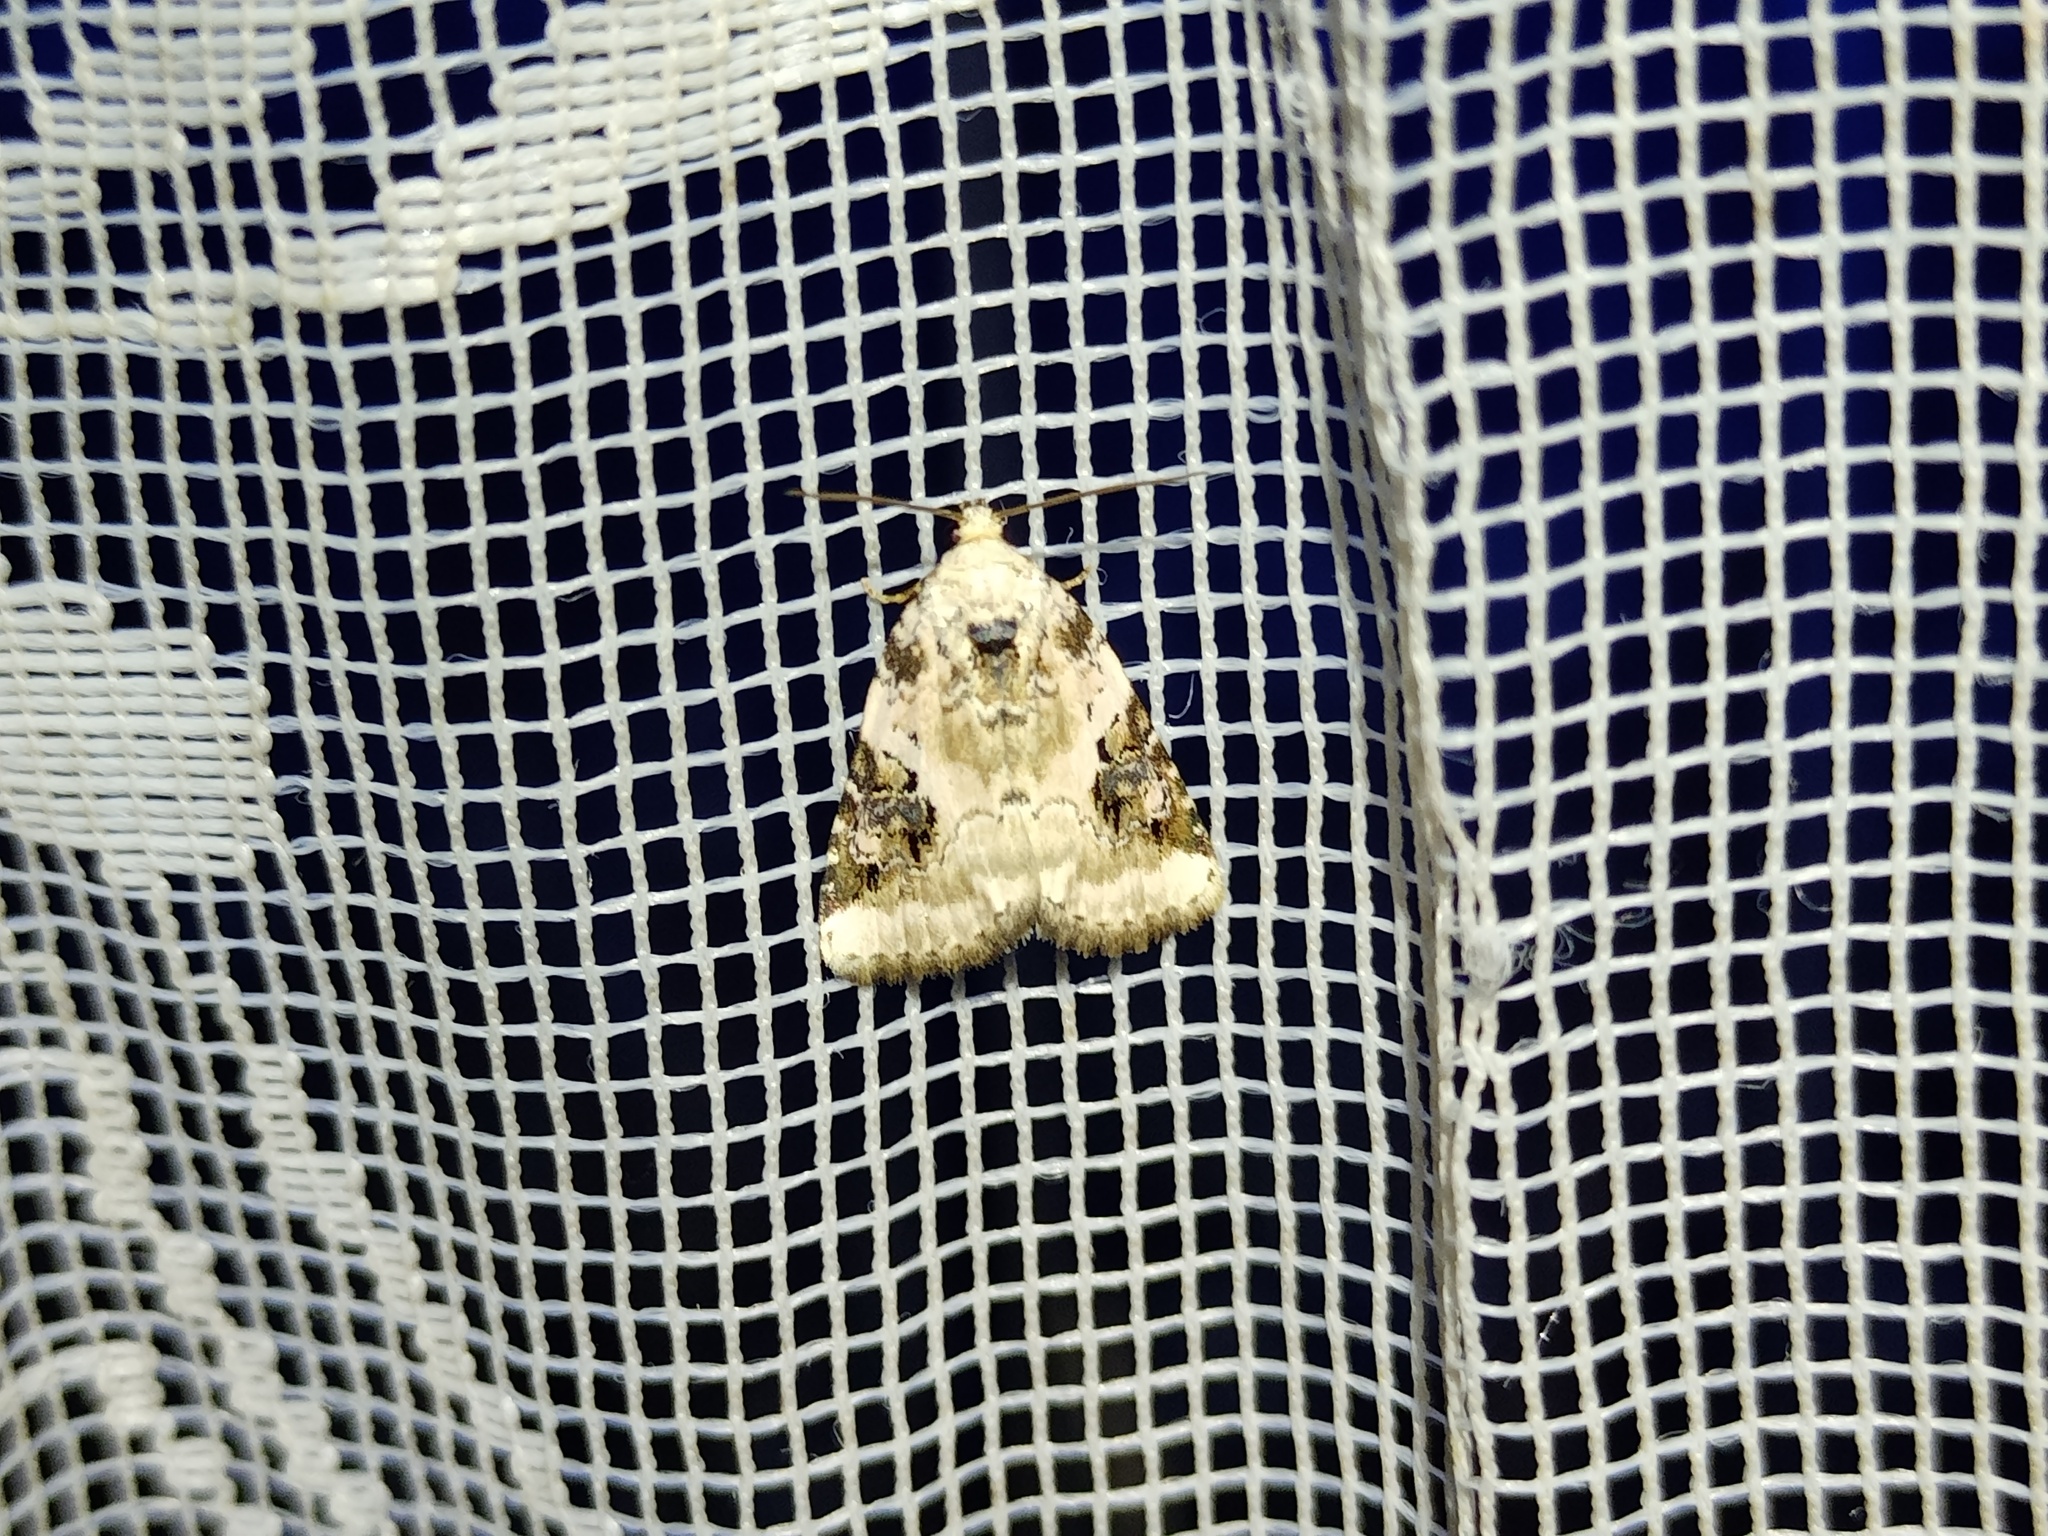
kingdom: Animalia
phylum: Arthropoda
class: Insecta
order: Lepidoptera
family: Noctuidae
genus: Pseudeustrotia
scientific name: Pseudeustrotia candidula
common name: Shining marbled
